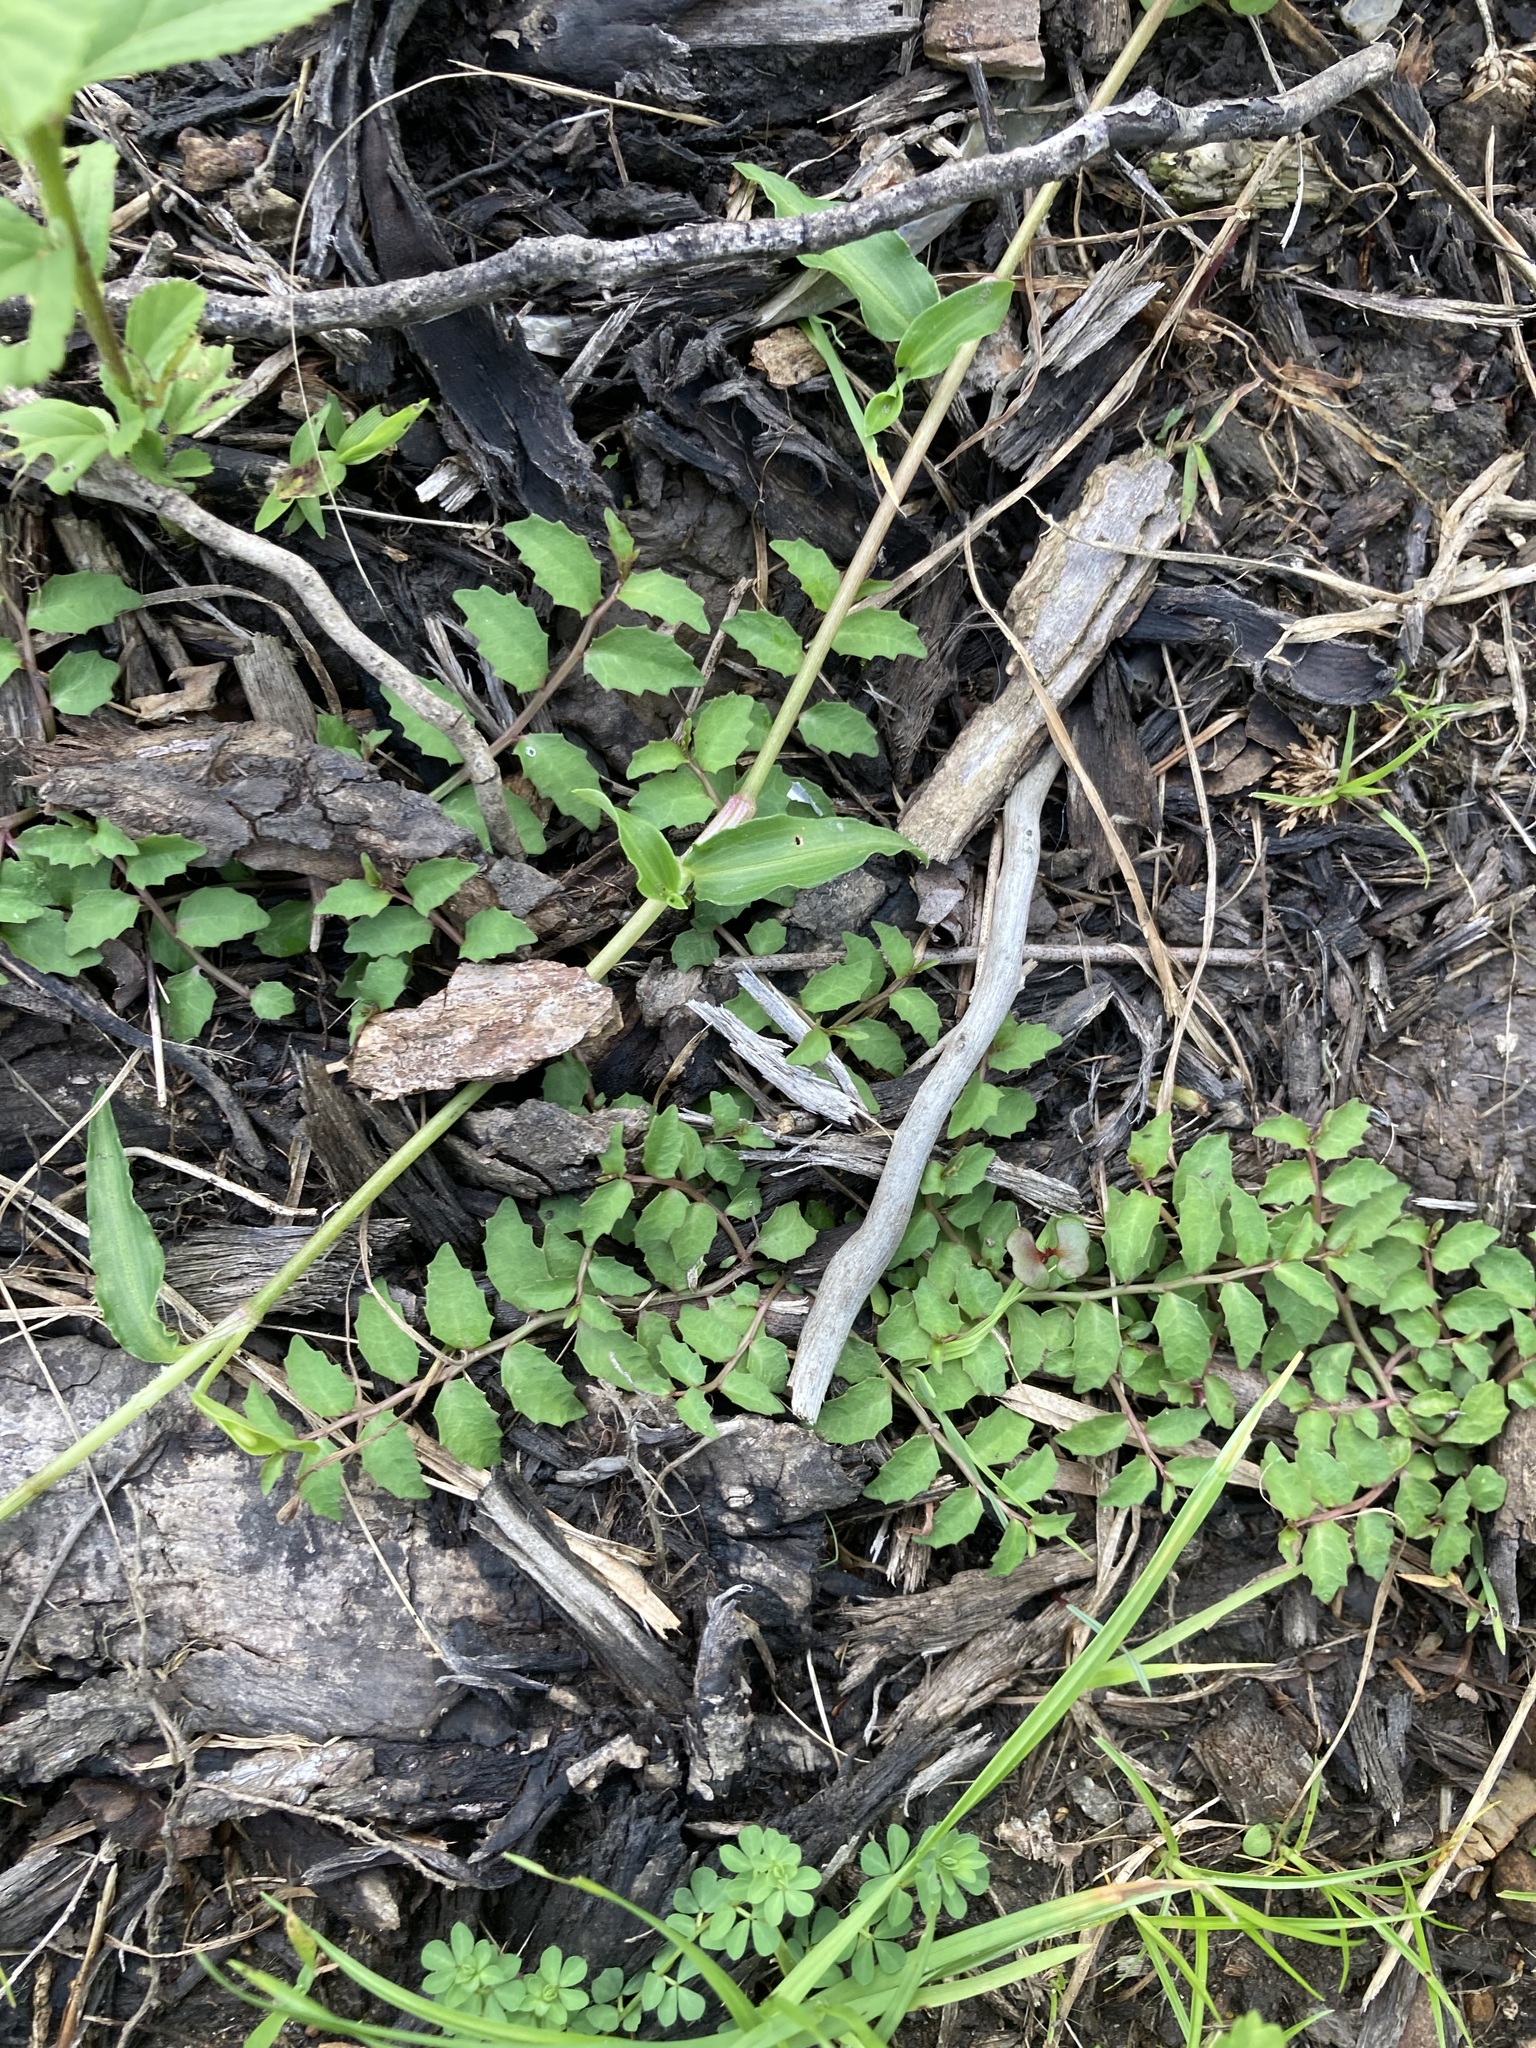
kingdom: Plantae
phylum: Tracheophyta
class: Magnoliopsida
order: Asterales
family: Campanulaceae
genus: Lobelia
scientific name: Lobelia purpurascens
